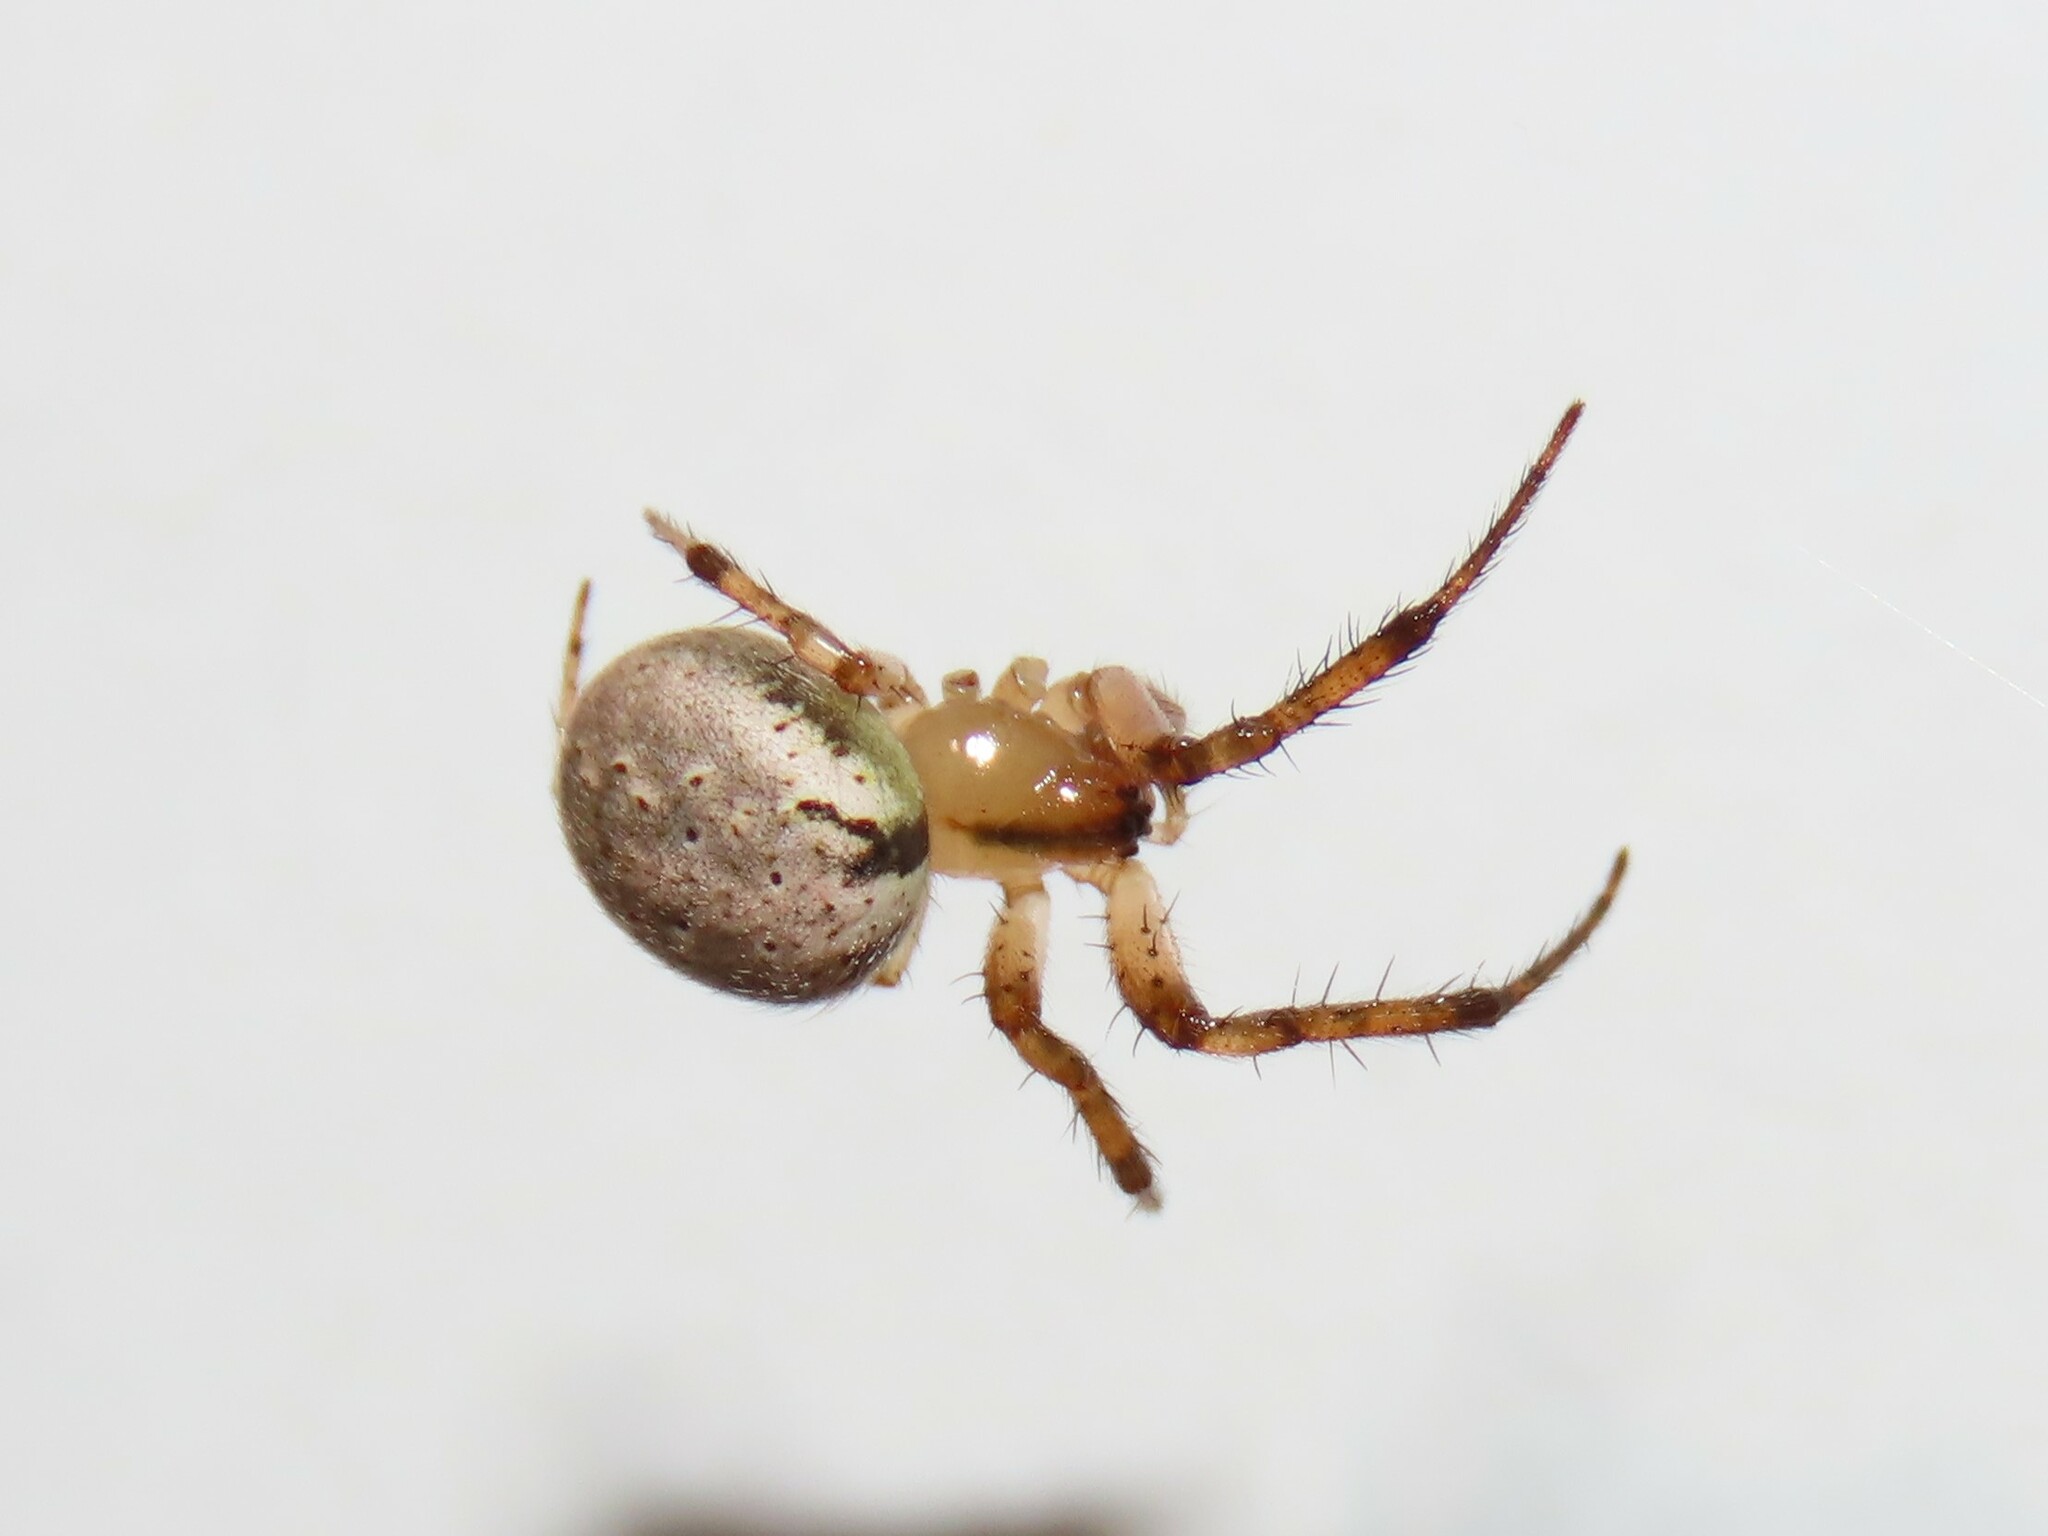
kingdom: Animalia
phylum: Arthropoda
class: Arachnida
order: Araneae
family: Araneidae
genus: Metazygia
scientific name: Metazygia zilloides
